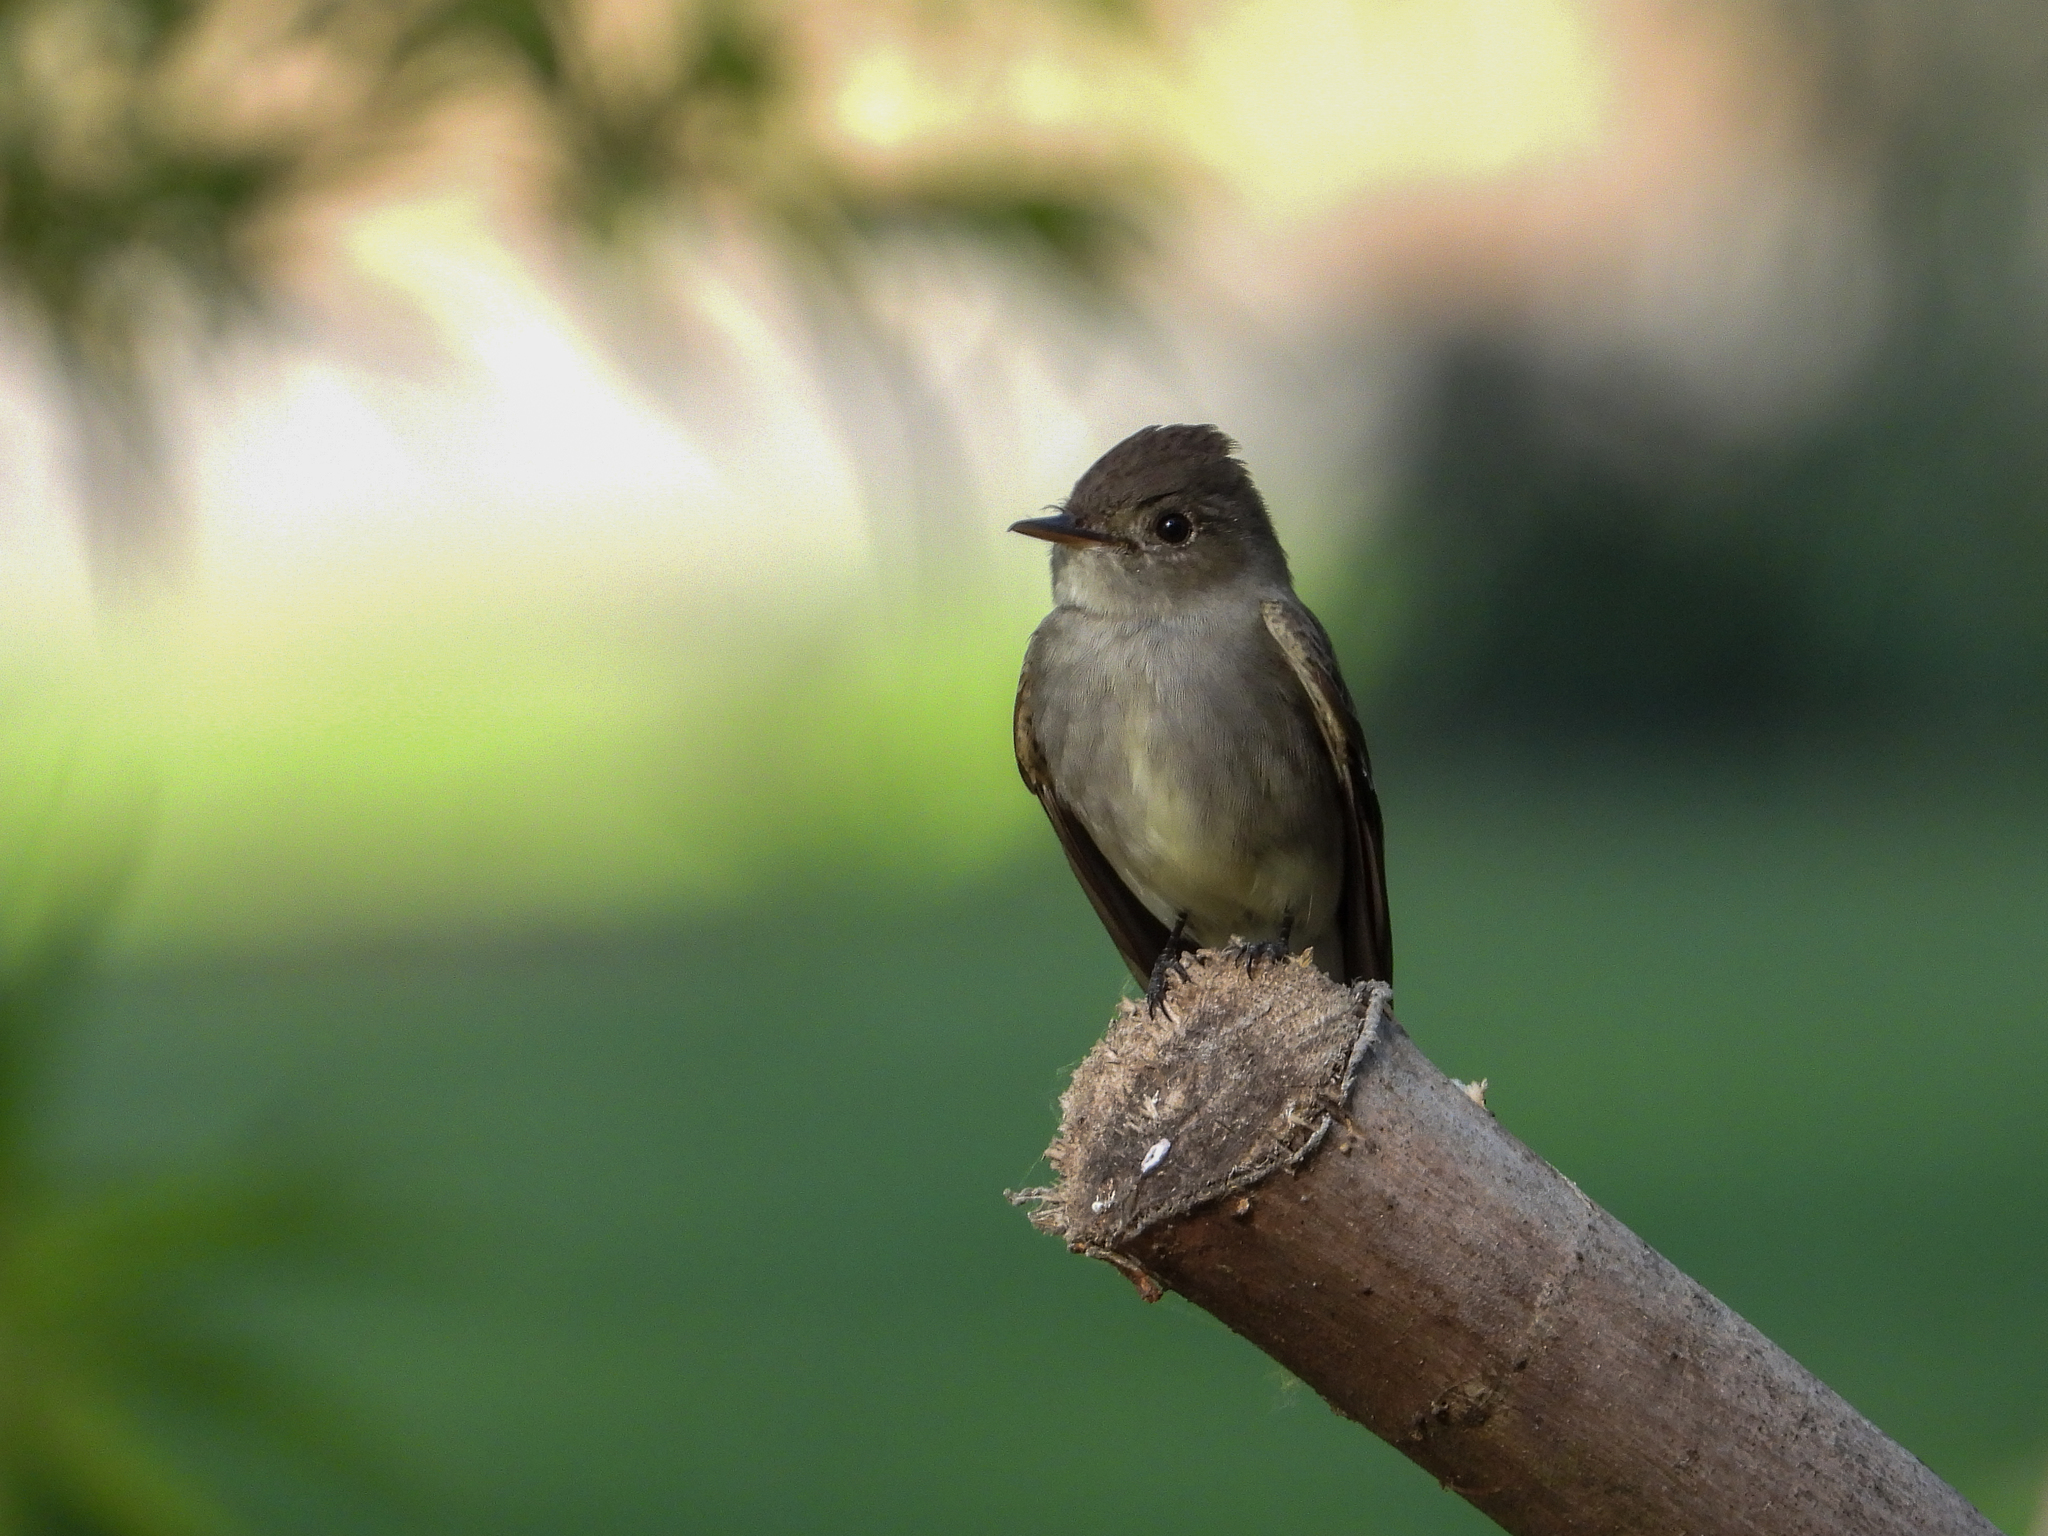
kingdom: Animalia
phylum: Chordata
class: Aves
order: Passeriformes
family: Tyrannidae
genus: Contopus
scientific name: Contopus sordidulus
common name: Western wood-pewee
